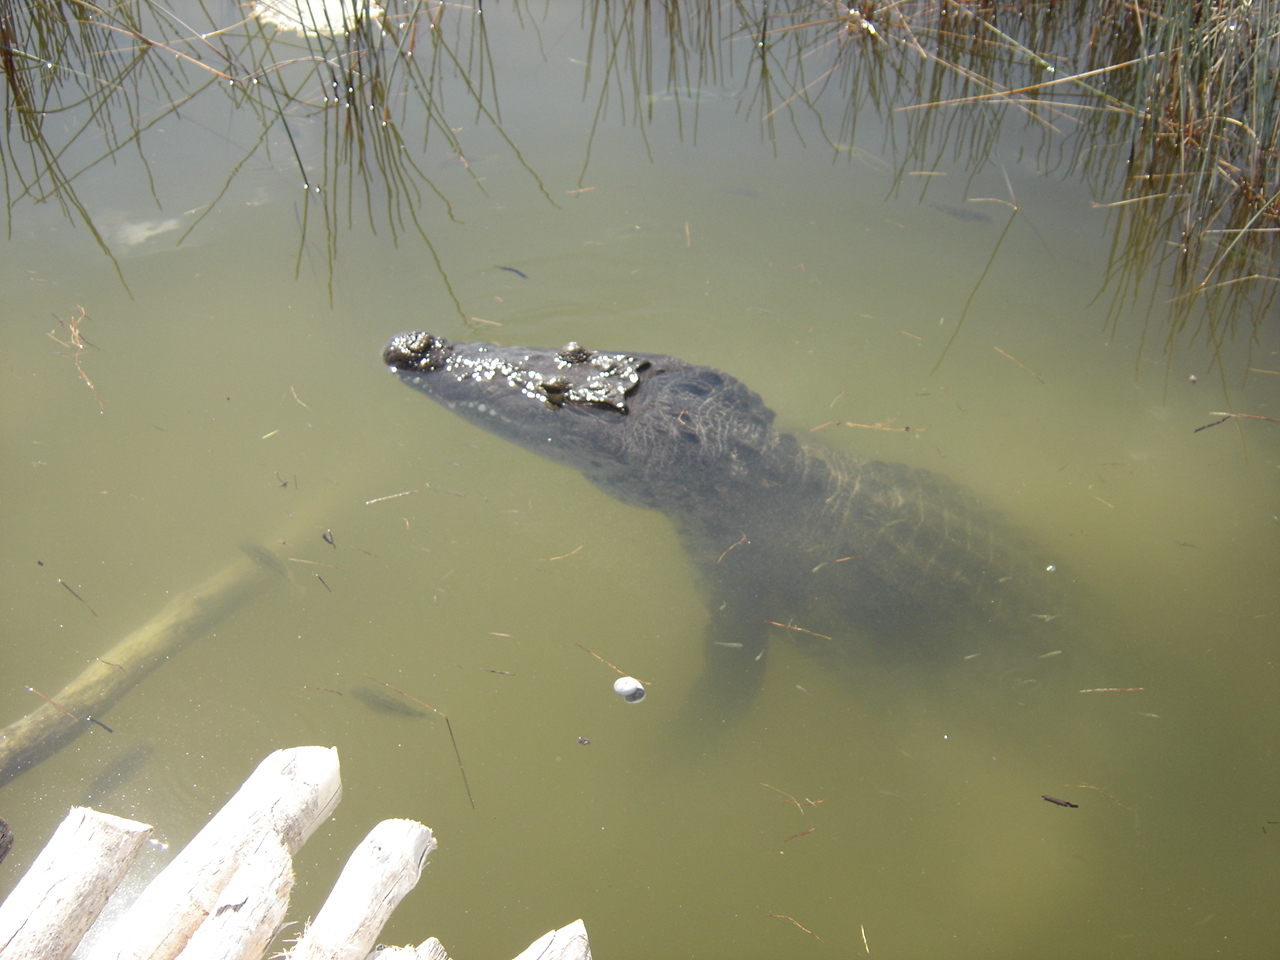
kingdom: Animalia
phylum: Chordata
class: Crocodylia
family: Crocodylidae
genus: Crocodylus
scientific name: Crocodylus moreletii
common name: Morelet's crocodile
